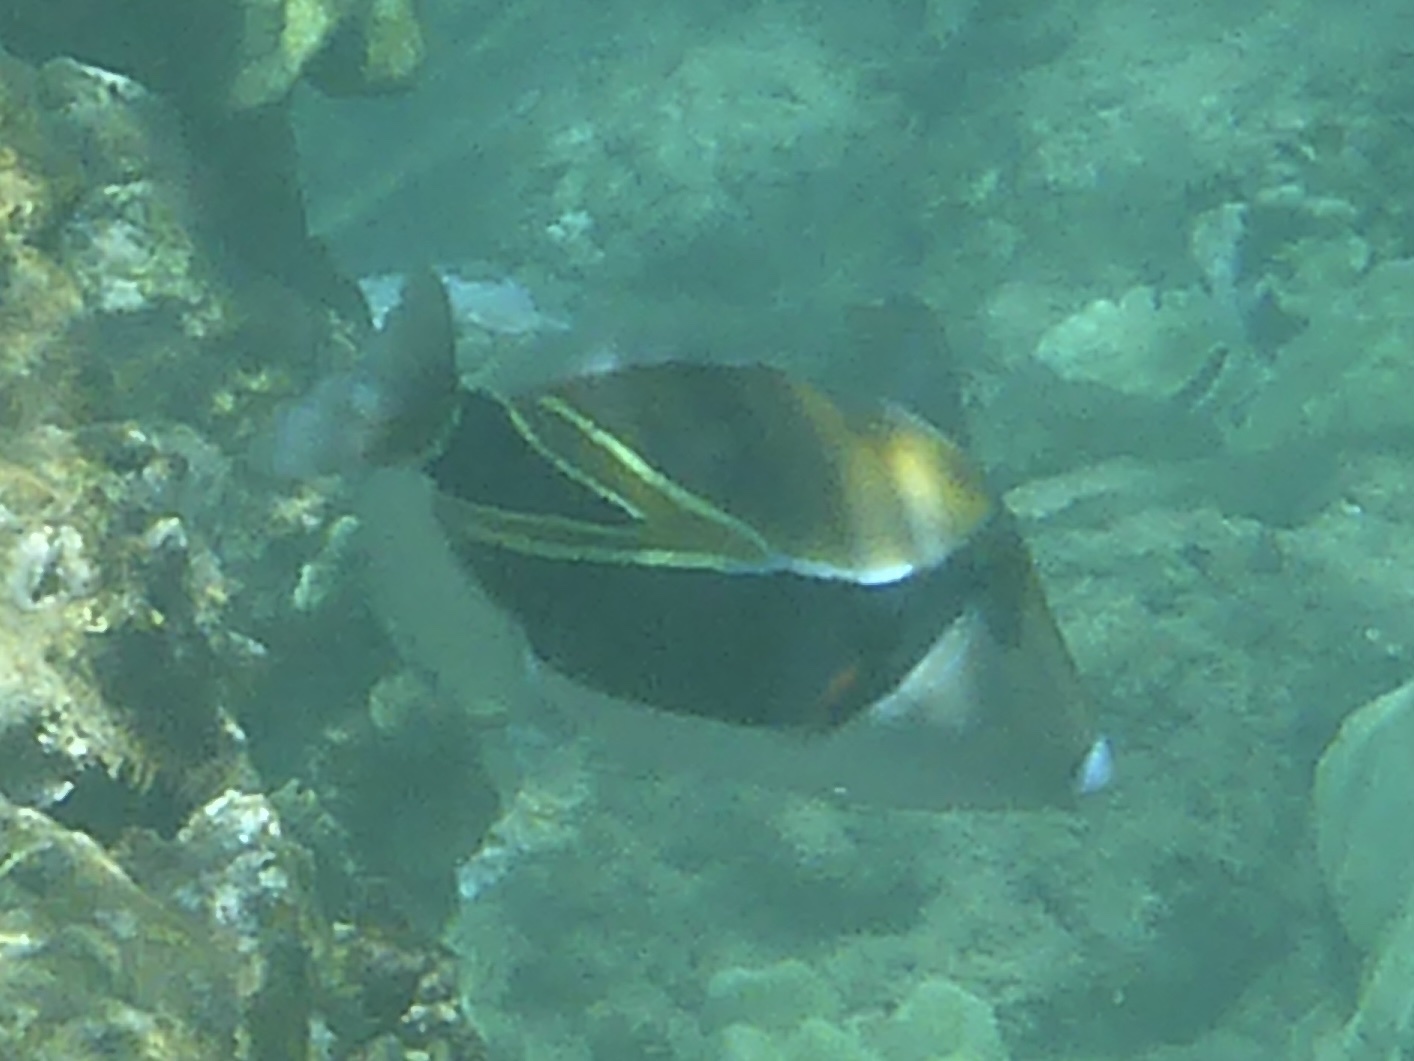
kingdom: Animalia
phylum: Chordata
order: Tetraodontiformes
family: Balistidae
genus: Rhinecanthus
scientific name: Rhinecanthus rectangulus
